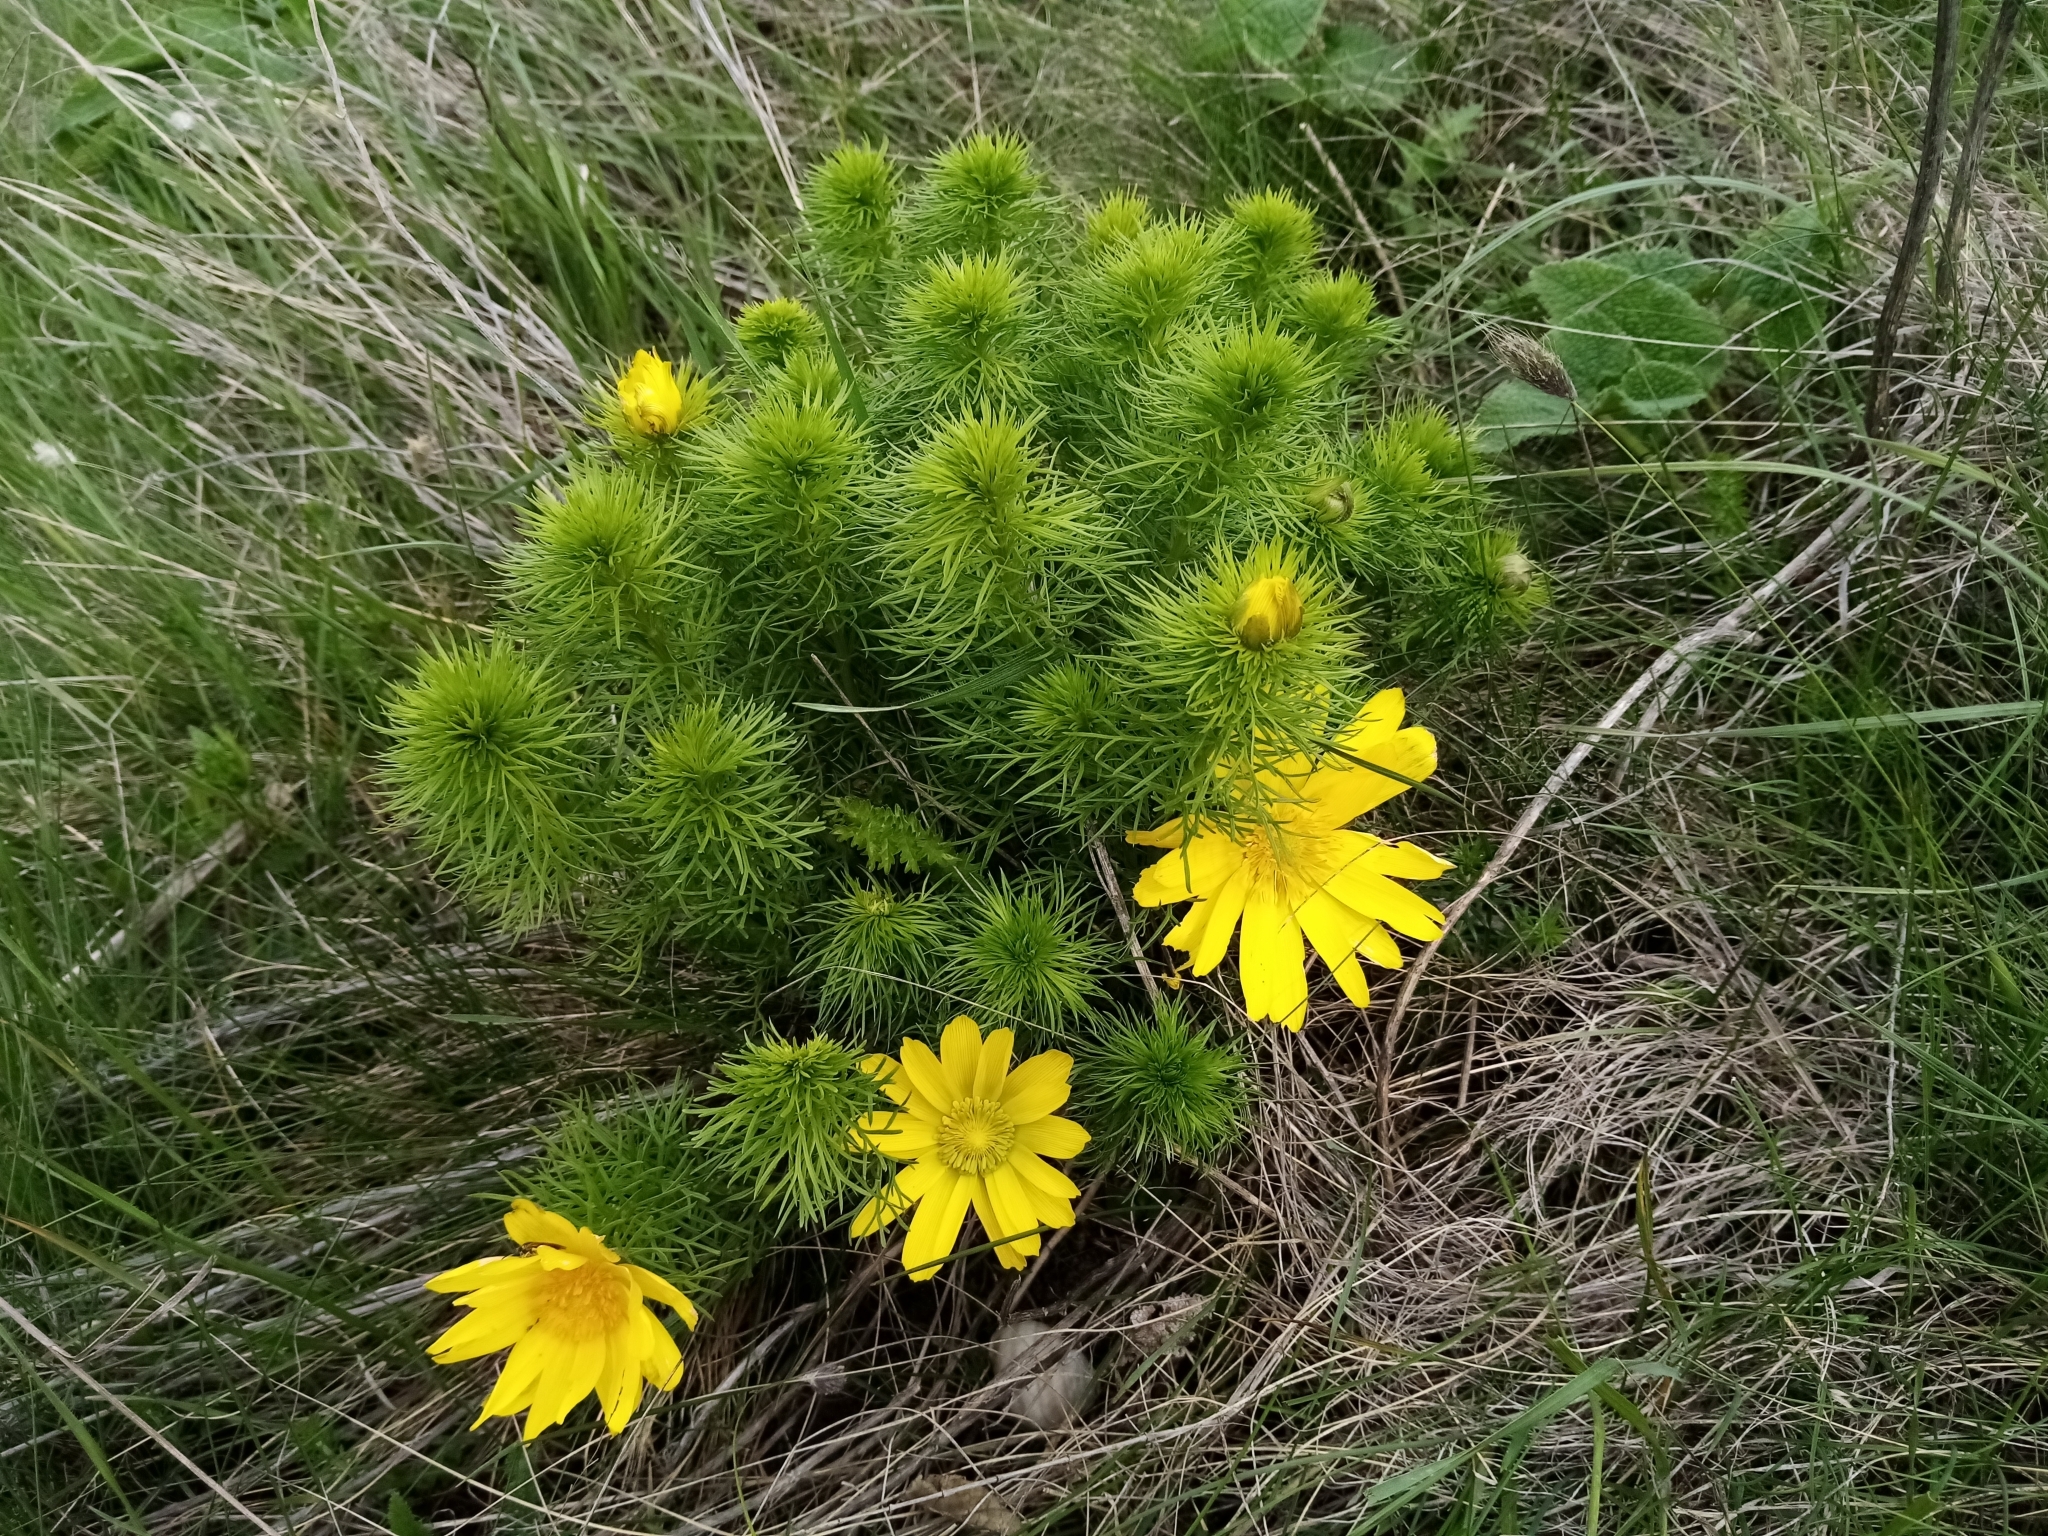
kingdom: Plantae
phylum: Tracheophyta
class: Magnoliopsida
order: Ranunculales
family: Ranunculaceae
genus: Adonis
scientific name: Adonis vernalis
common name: Yellow pheasants-eye
